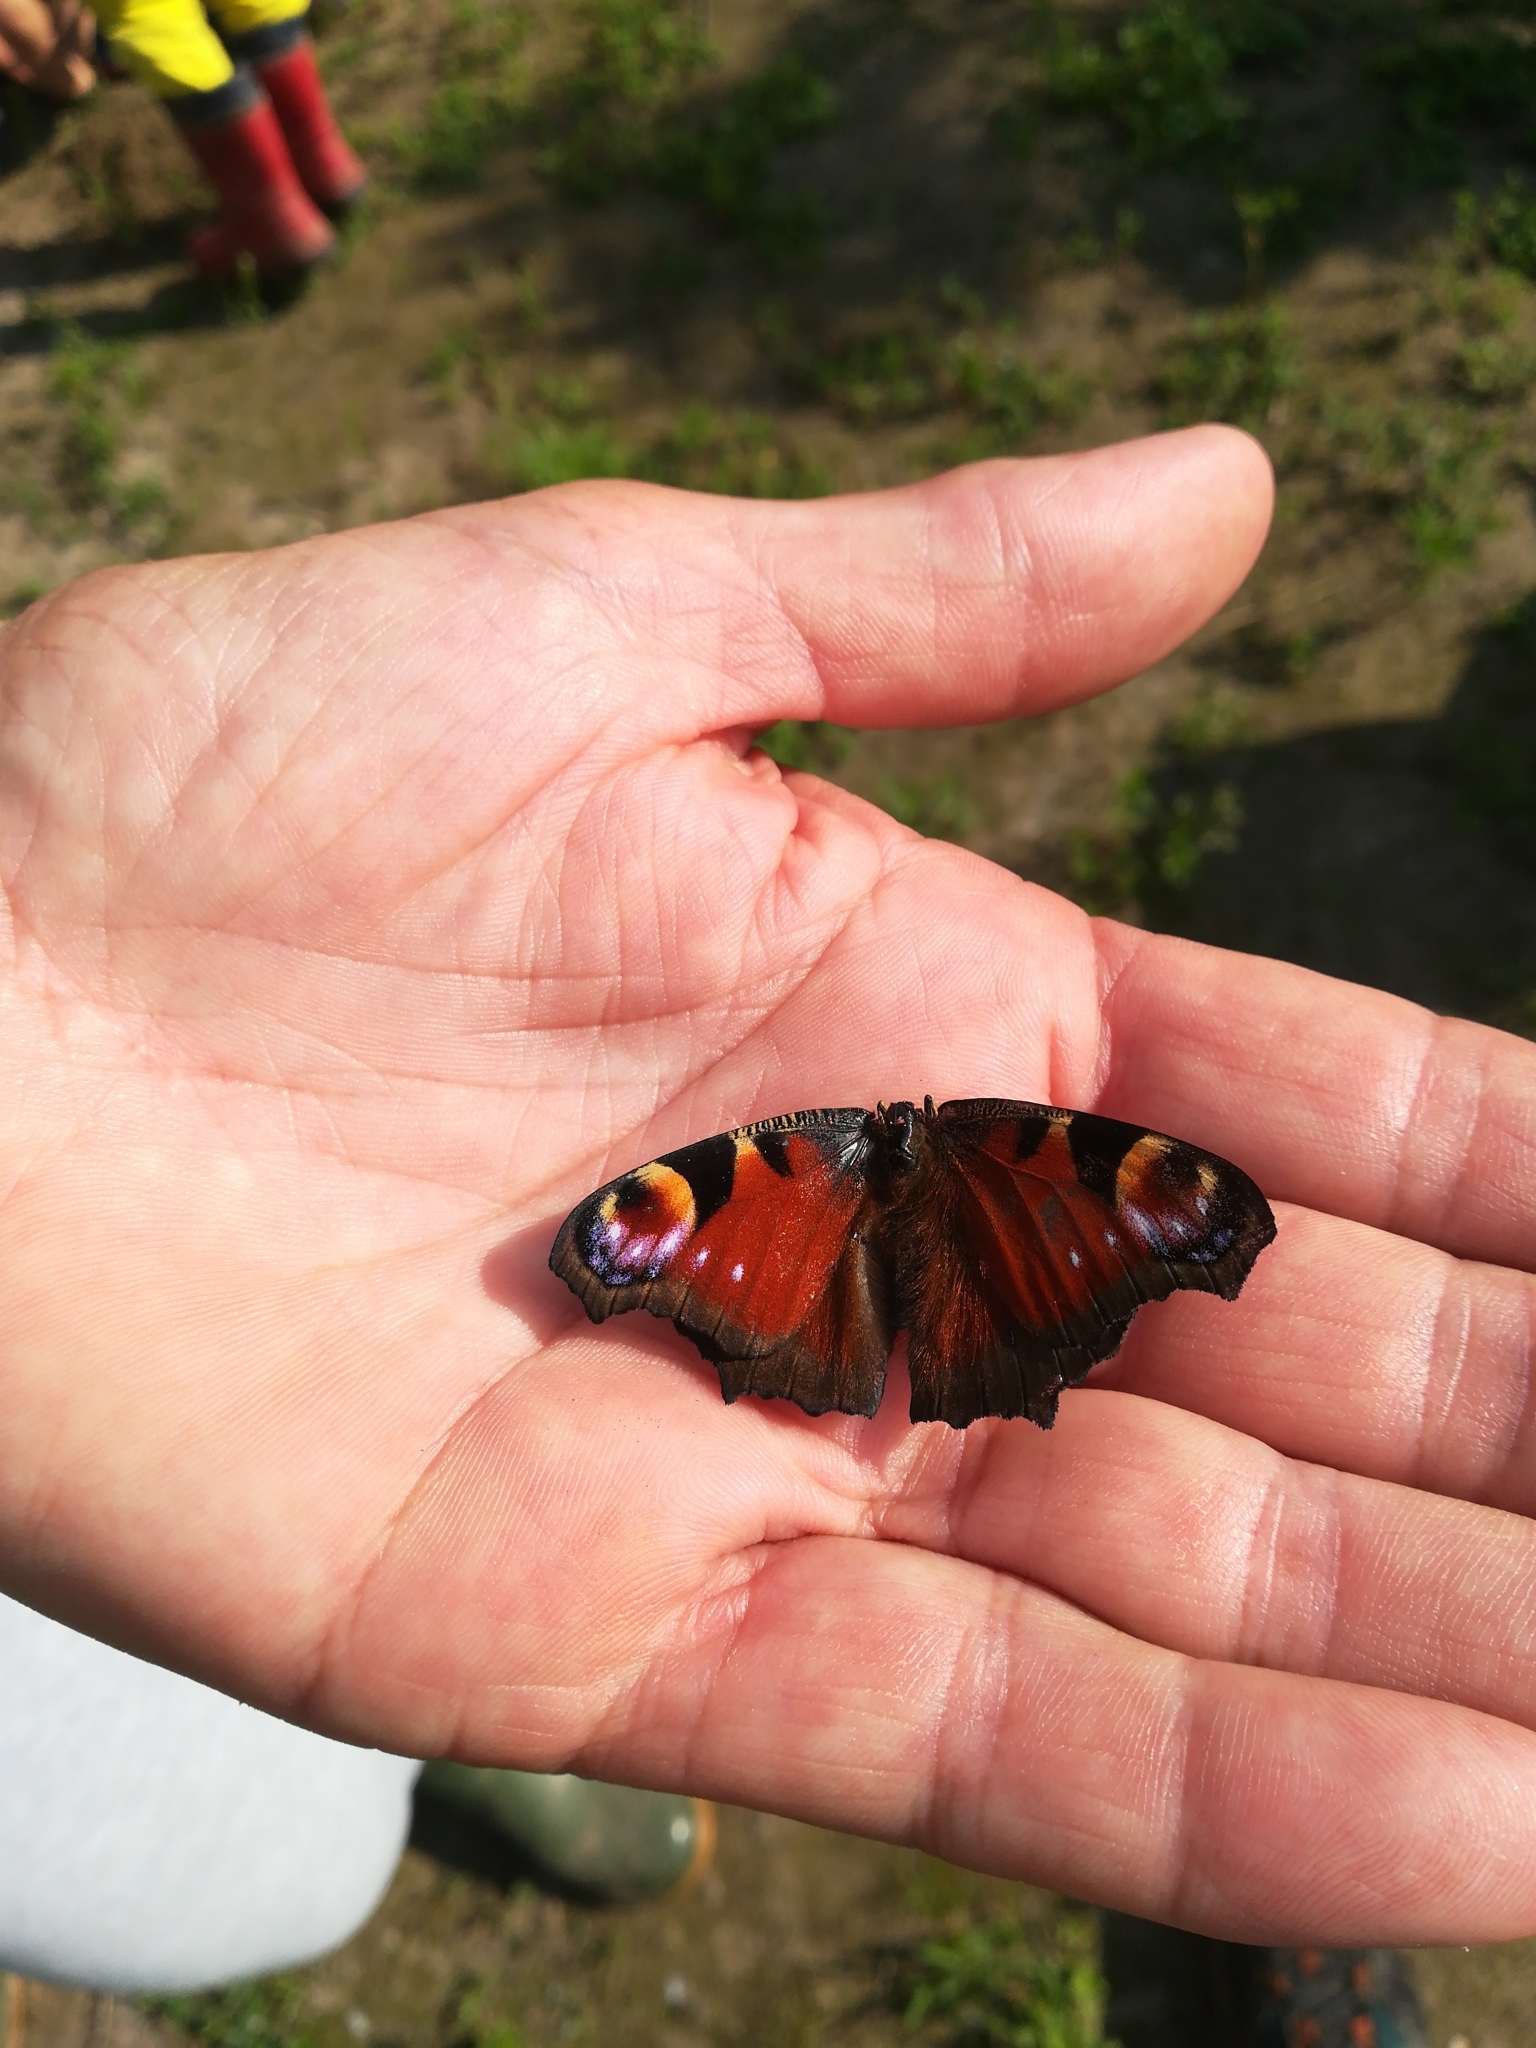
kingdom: Animalia
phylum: Arthropoda
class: Insecta
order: Lepidoptera
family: Nymphalidae
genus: Aglais
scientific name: Aglais io
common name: Peacock
